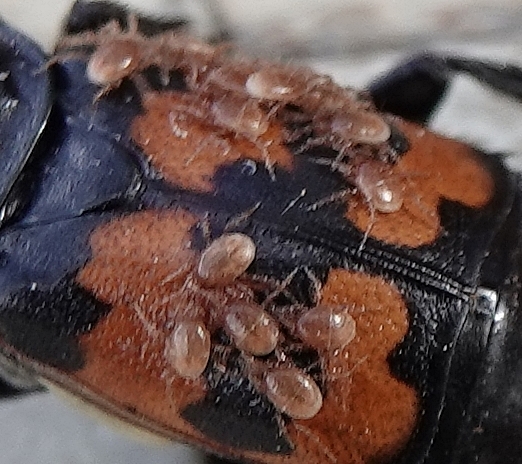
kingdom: Animalia
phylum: Arthropoda
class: Arachnida
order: Mesostigmata
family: Parasitidae
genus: Poecilochirus
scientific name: Poecilochirus
